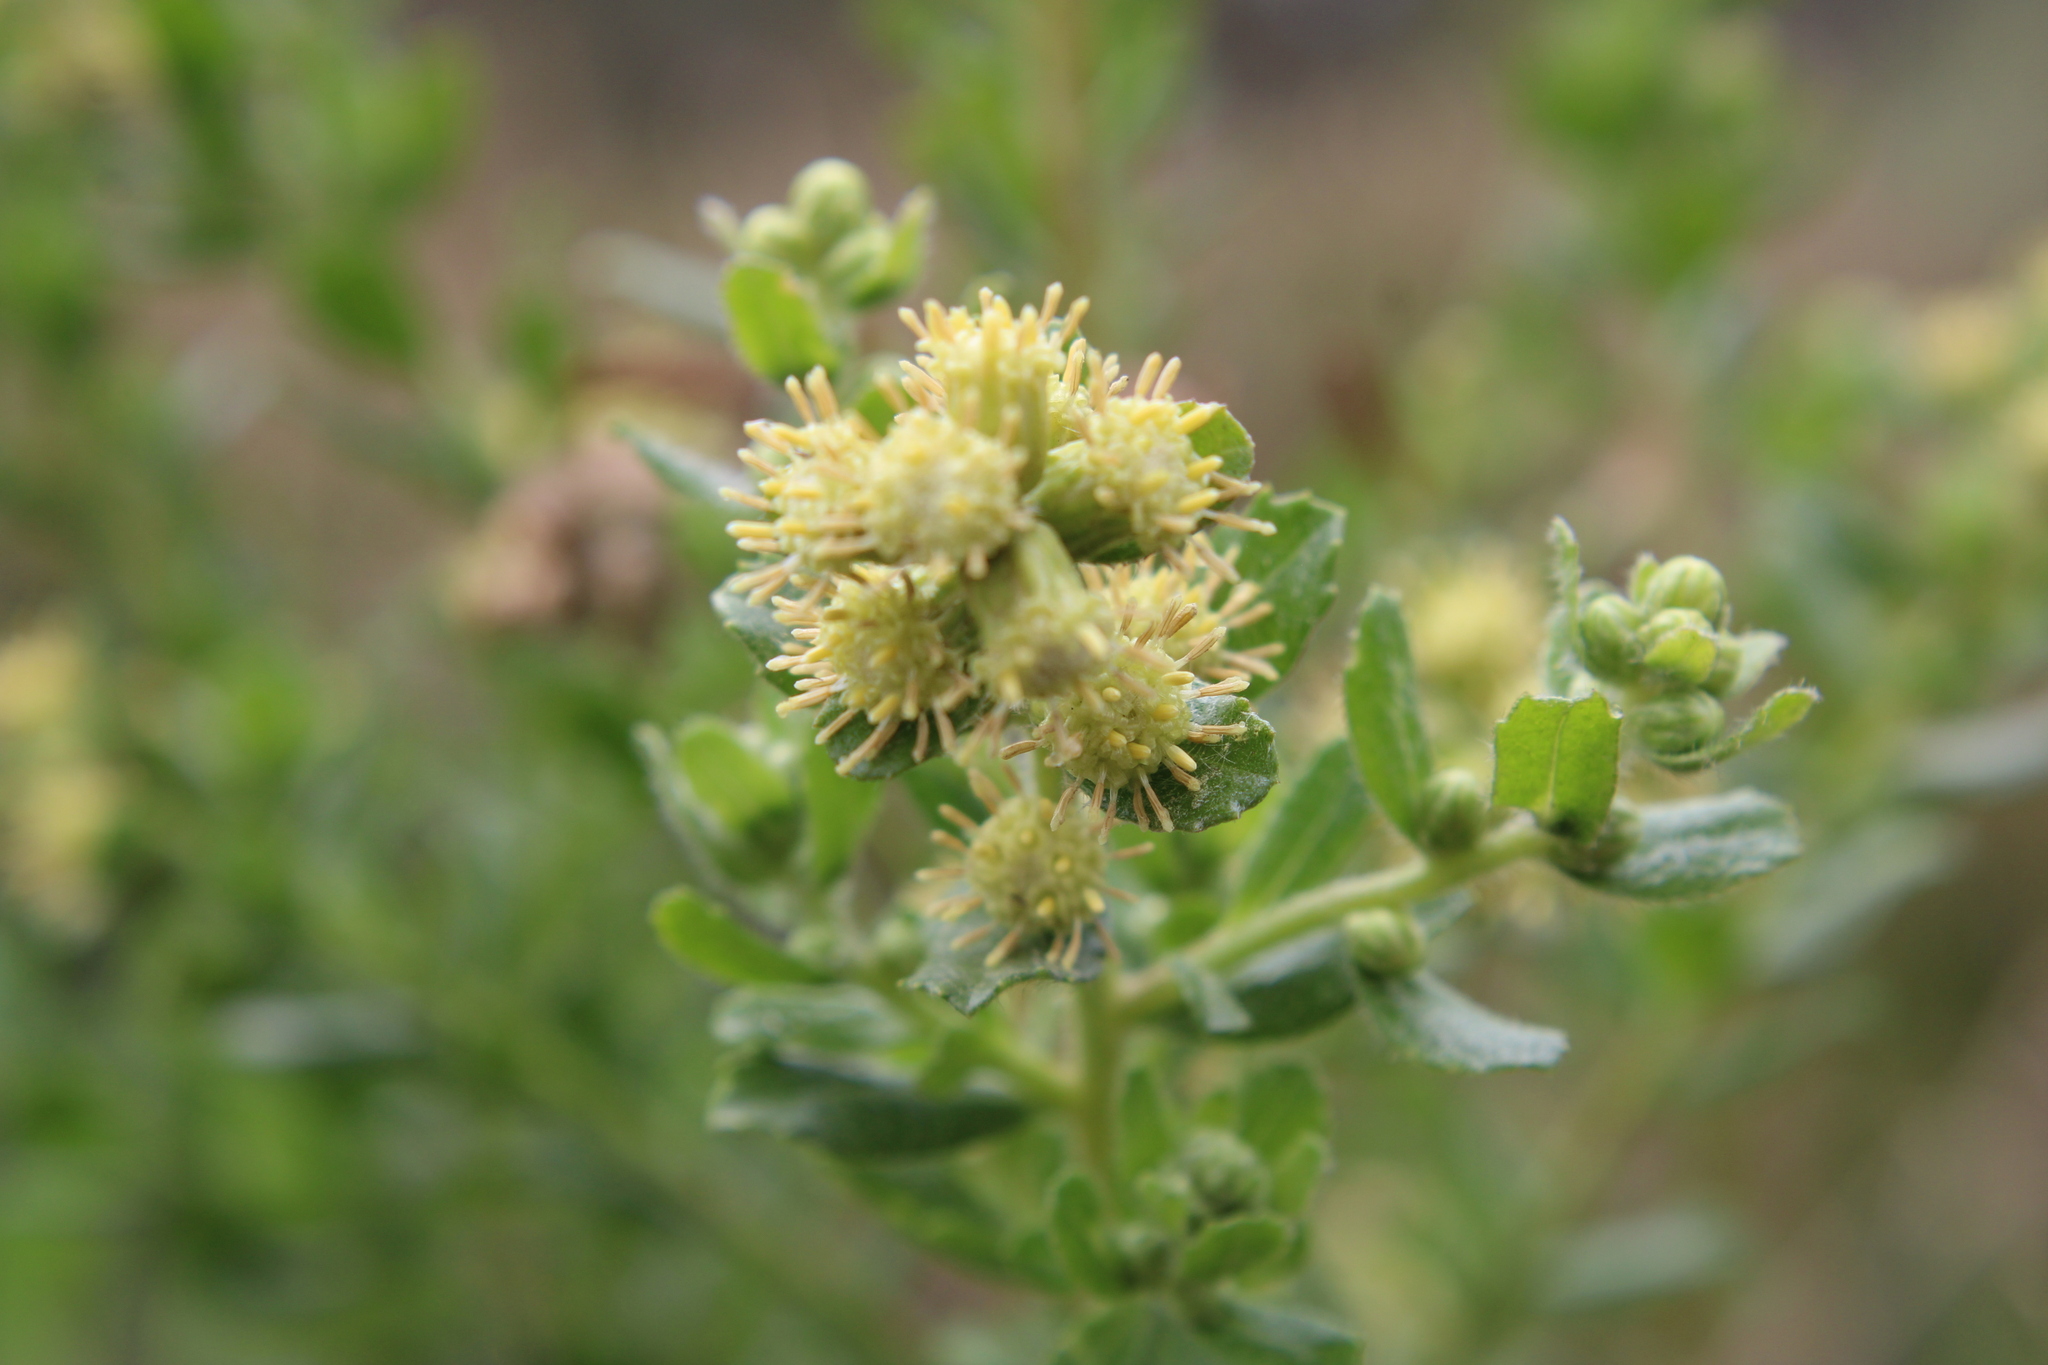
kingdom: Plantae
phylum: Tracheophyta
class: Magnoliopsida
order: Asterales
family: Asteraceae
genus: Baccharis
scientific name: Baccharis caprariifolia
